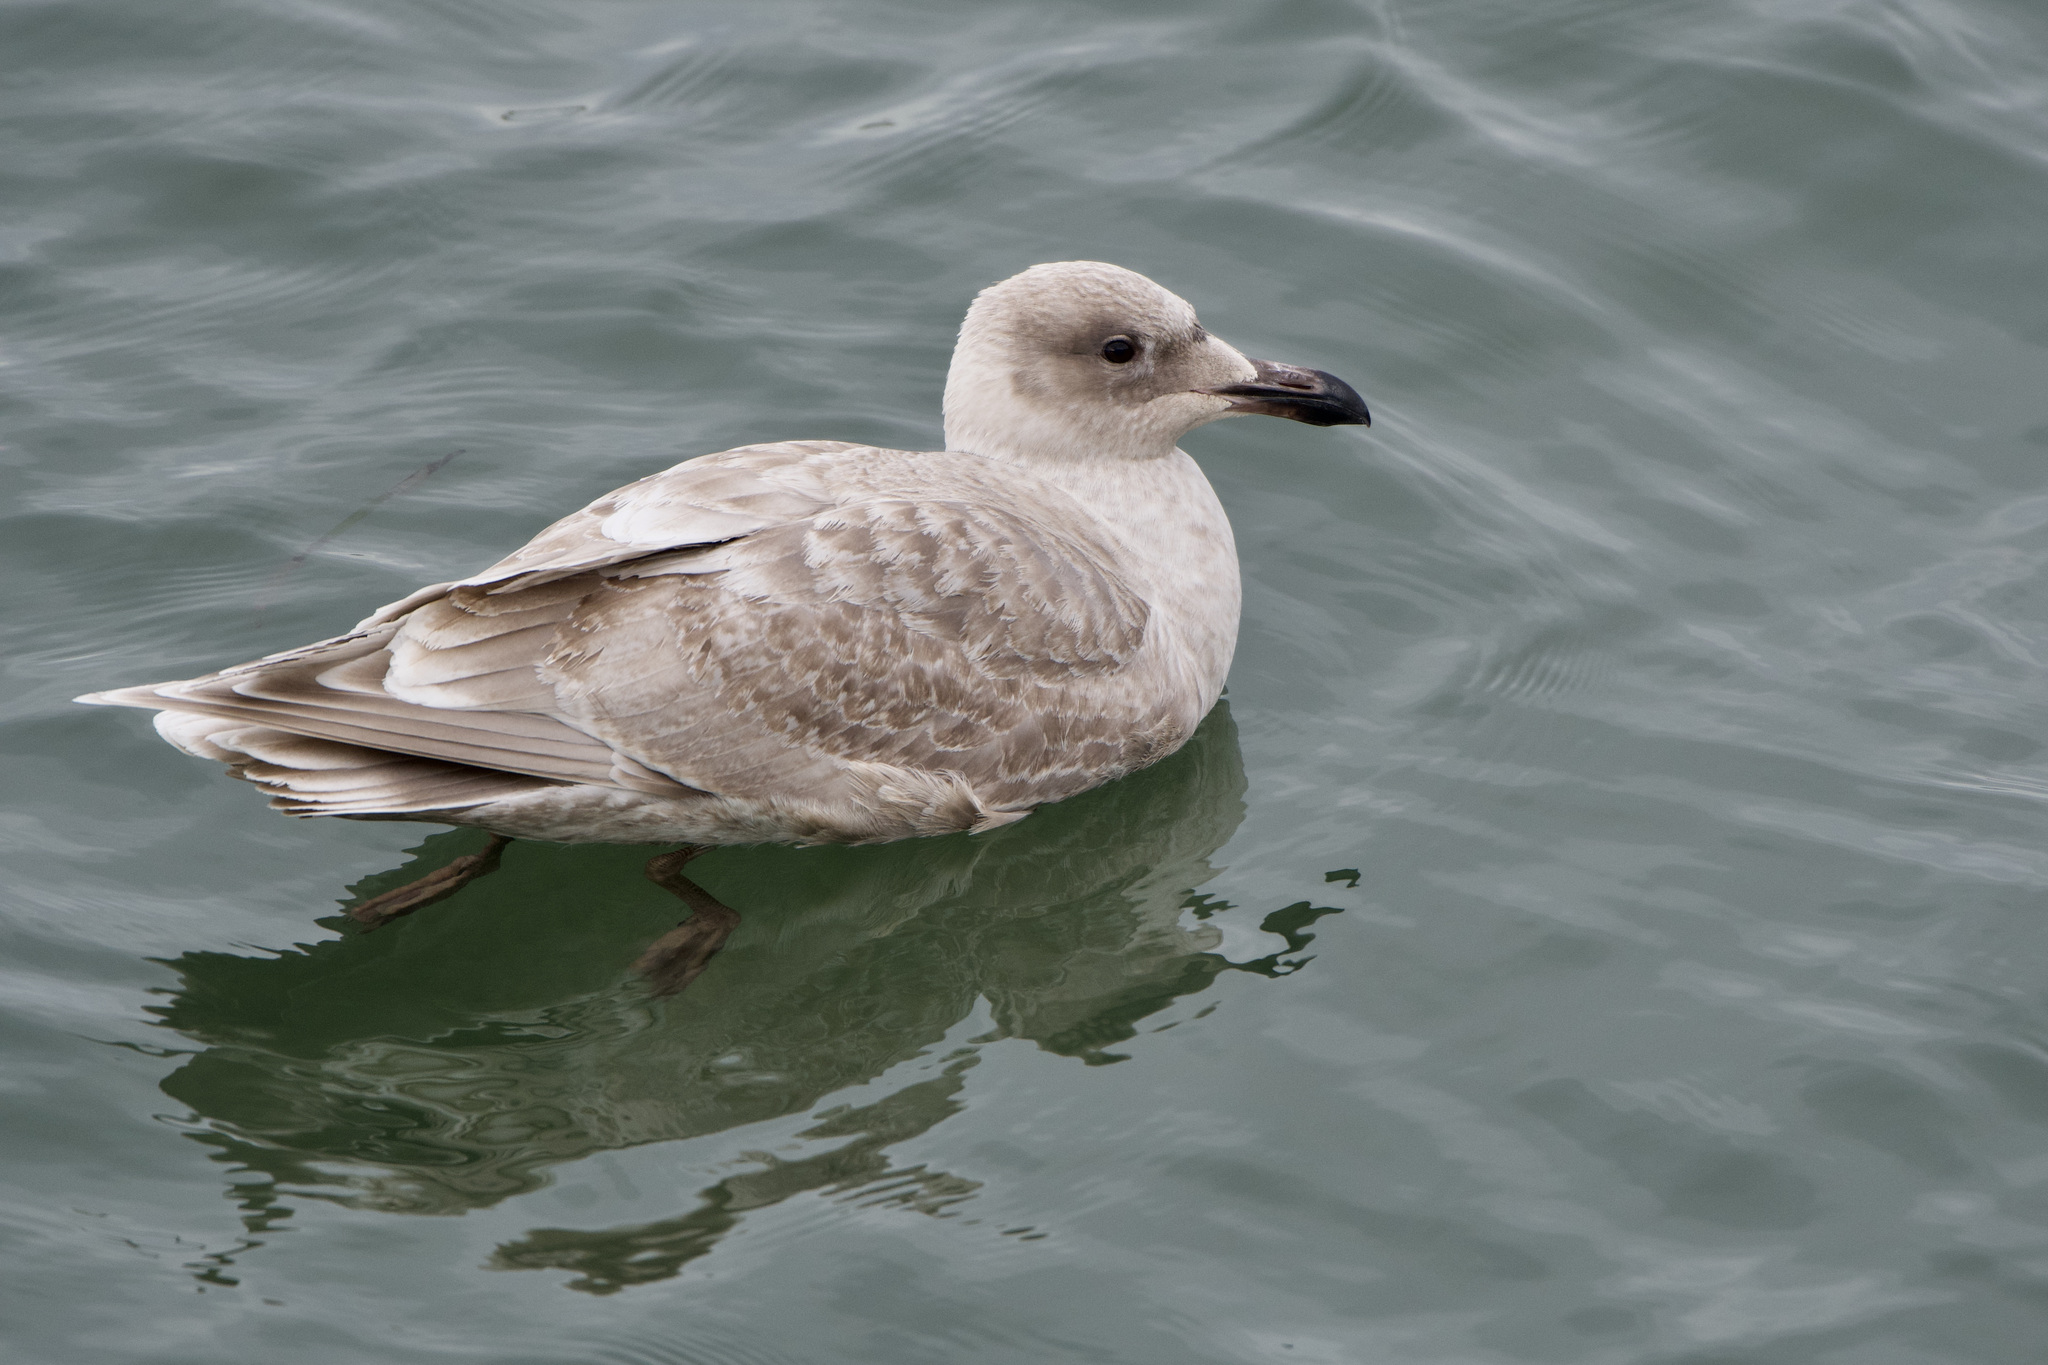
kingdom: Animalia
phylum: Chordata
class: Aves
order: Charadriiformes
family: Laridae
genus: Larus
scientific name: Larus
